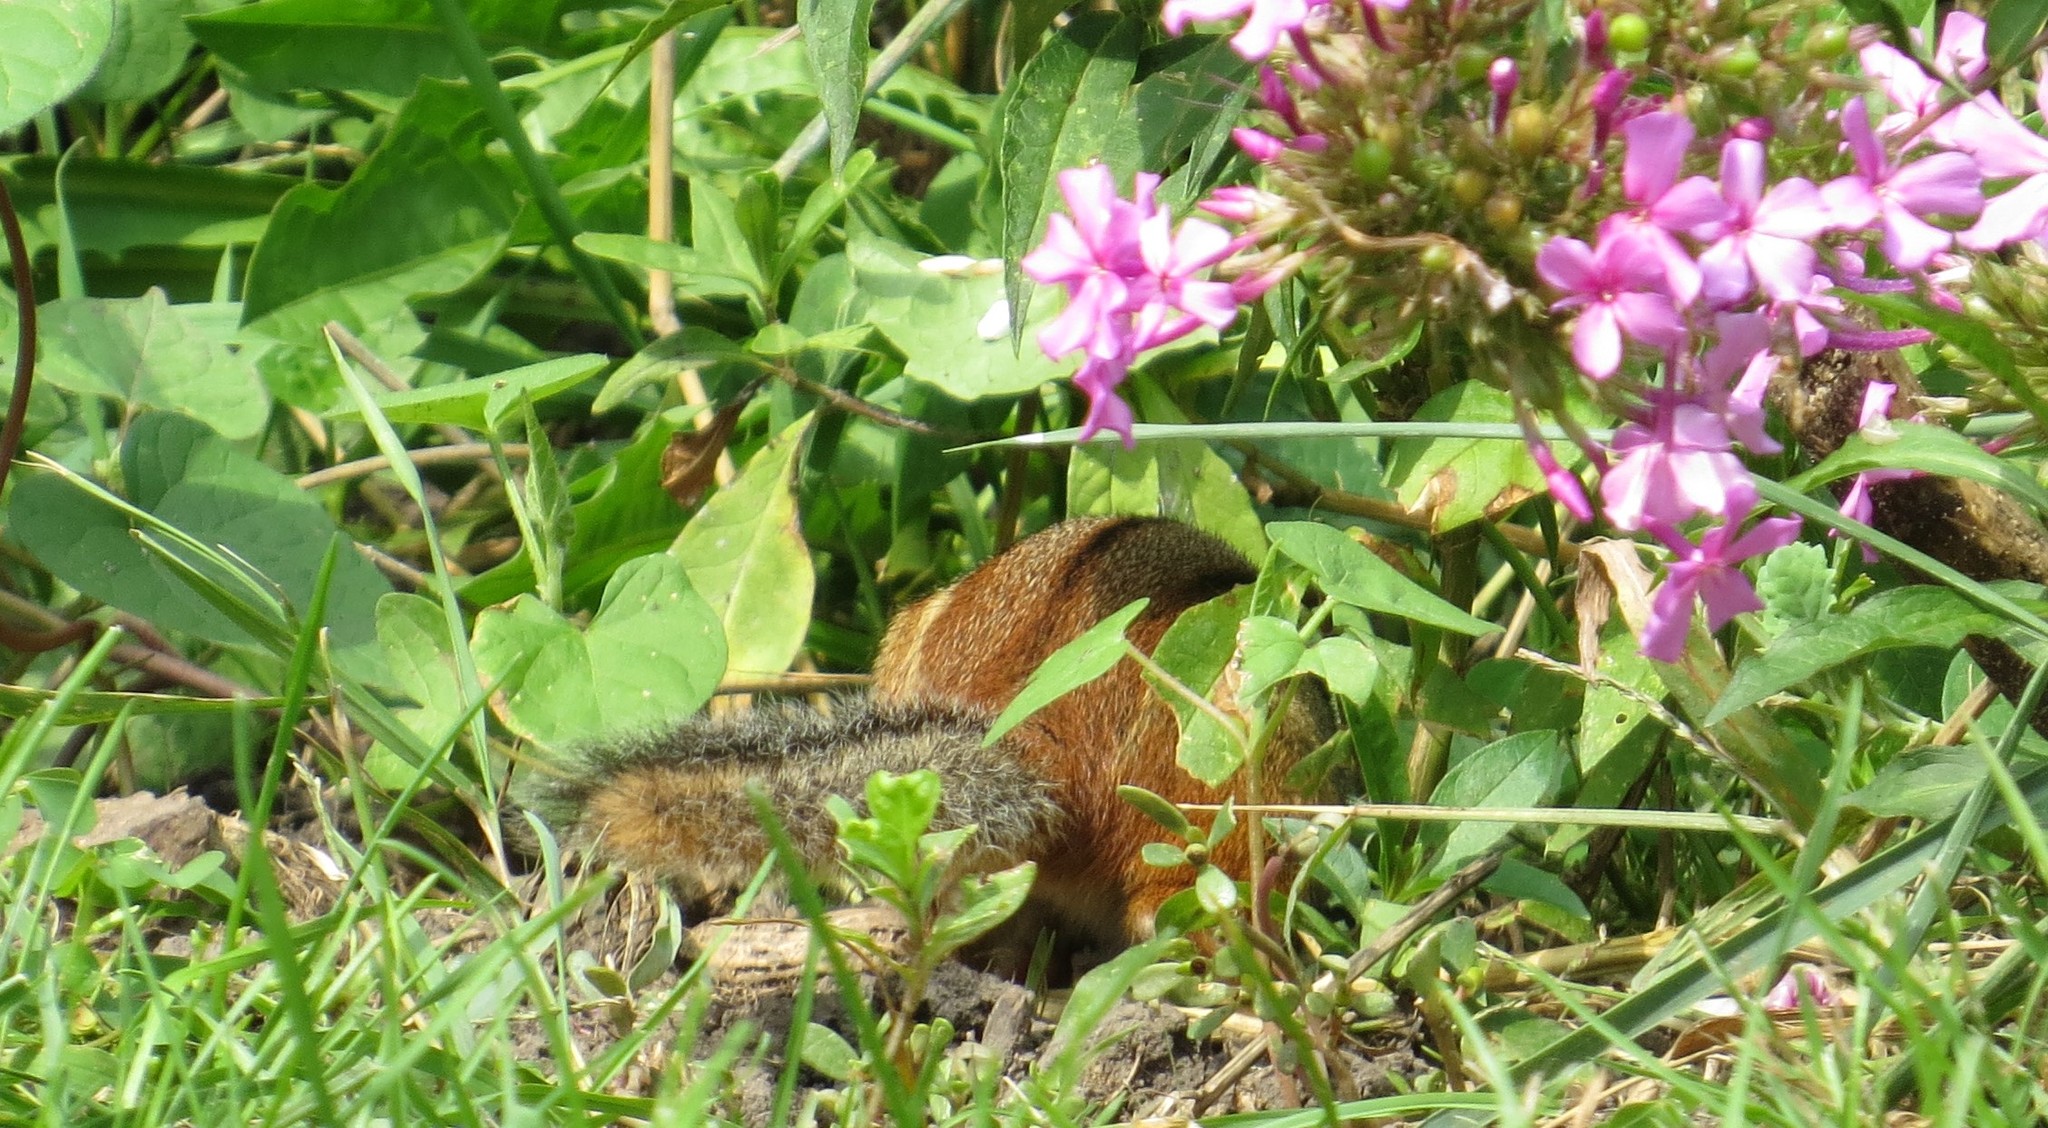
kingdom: Animalia
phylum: Chordata
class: Mammalia
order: Rodentia
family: Sciuridae
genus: Tamias
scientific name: Tamias striatus
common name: Eastern chipmunk
